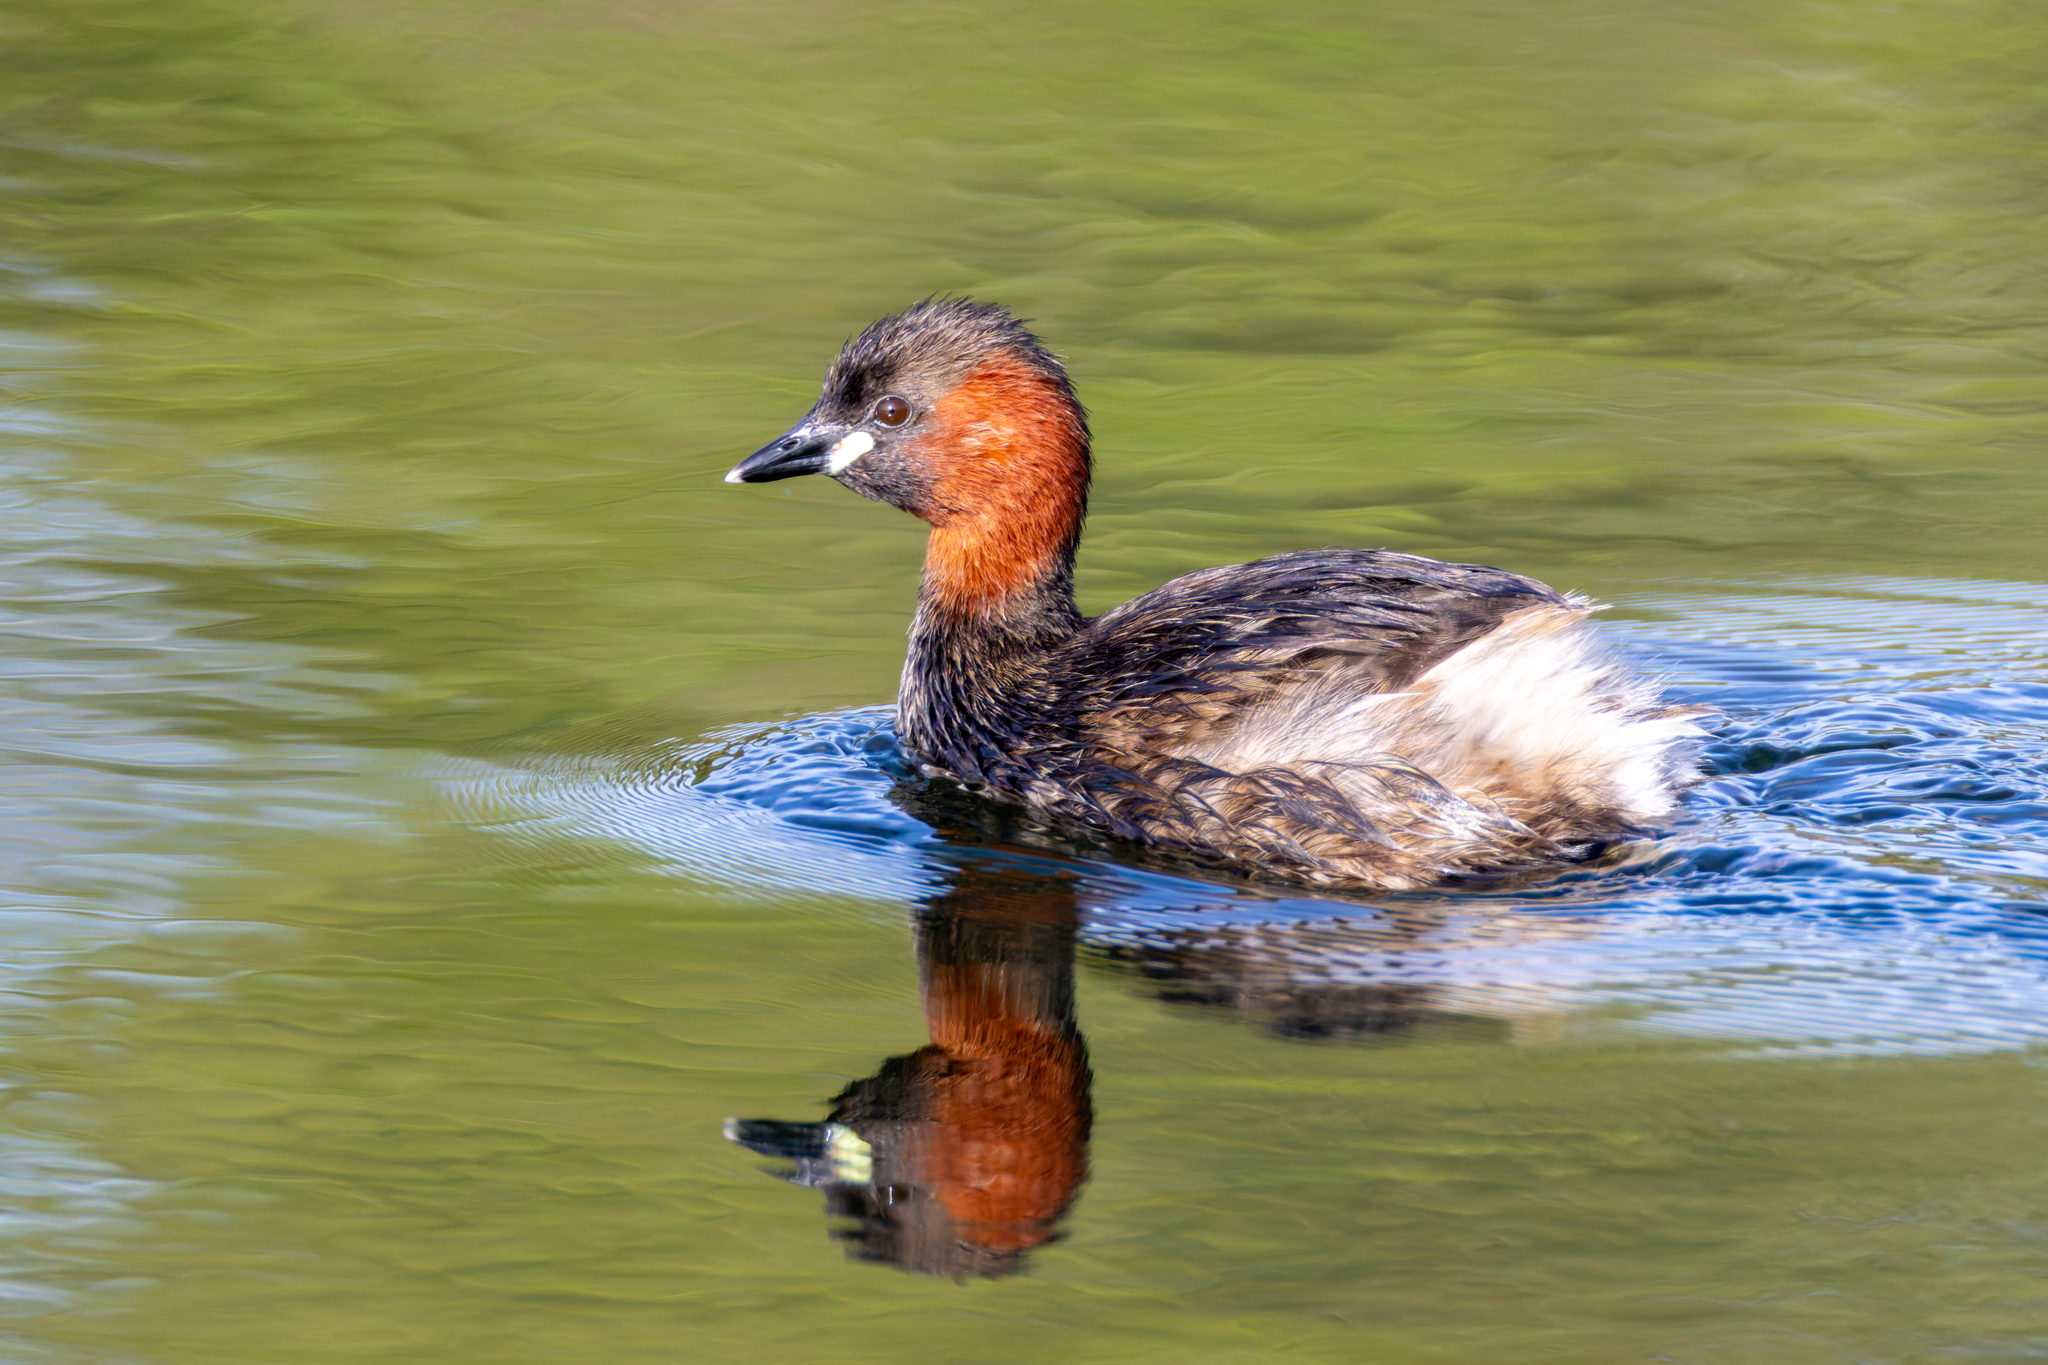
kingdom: Animalia
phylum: Chordata
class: Aves
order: Podicipediformes
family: Podicipedidae
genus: Tachybaptus
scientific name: Tachybaptus ruficollis
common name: Little grebe
